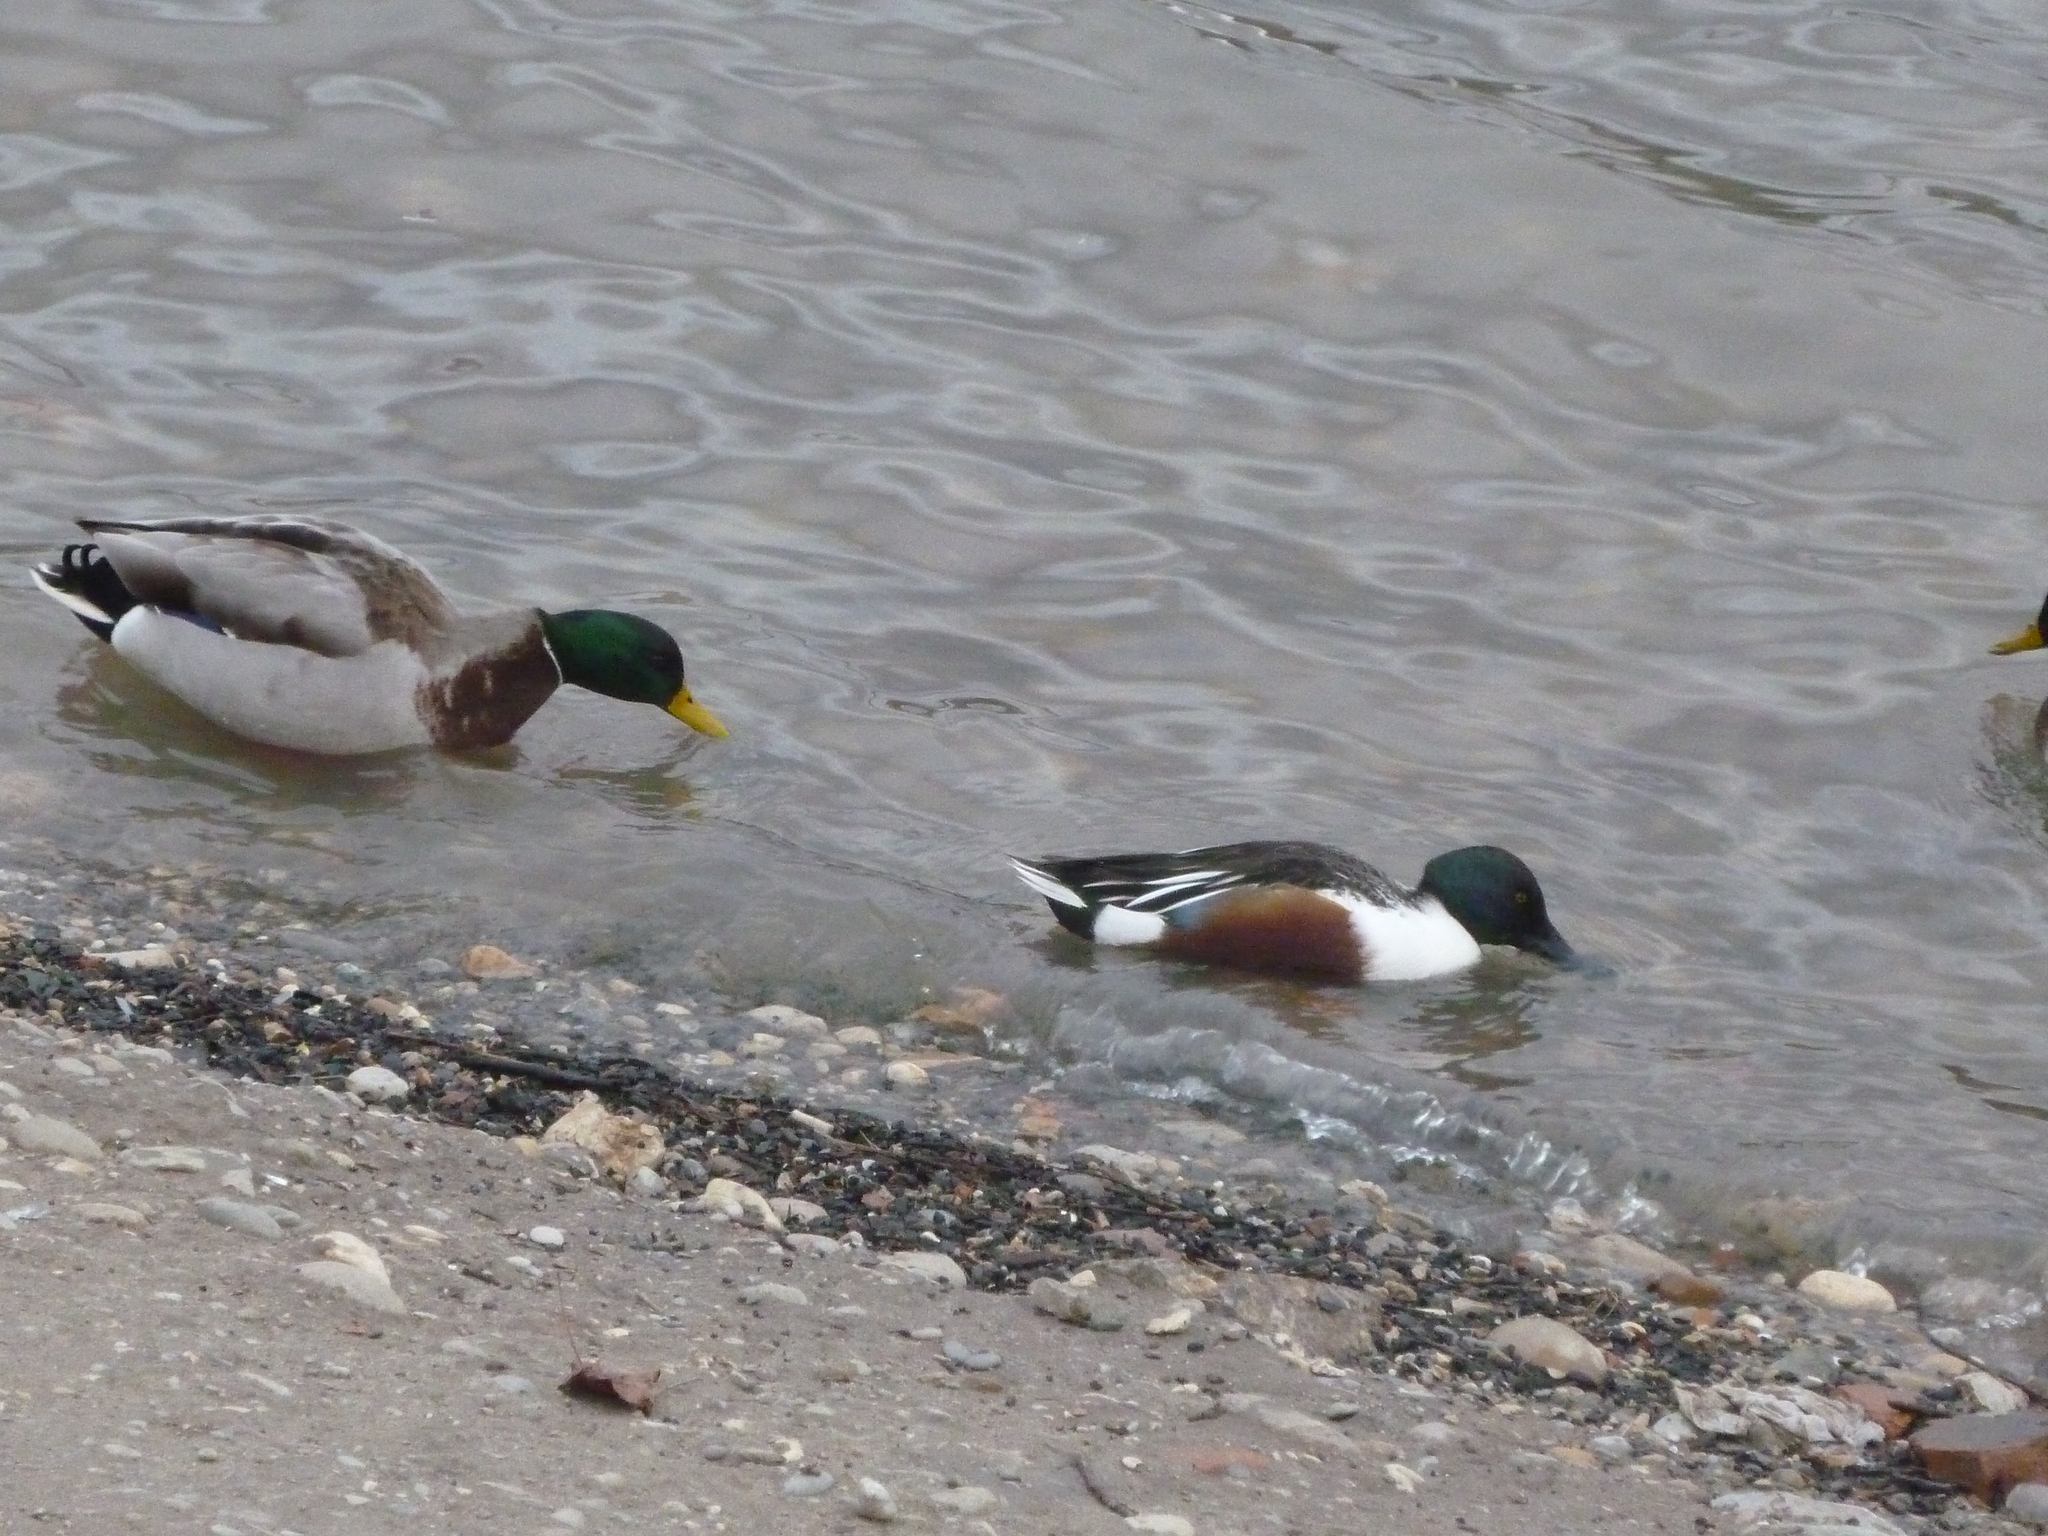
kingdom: Animalia
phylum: Chordata
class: Aves
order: Anseriformes
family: Anatidae
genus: Anas
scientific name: Anas platyrhynchos
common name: Mallard
